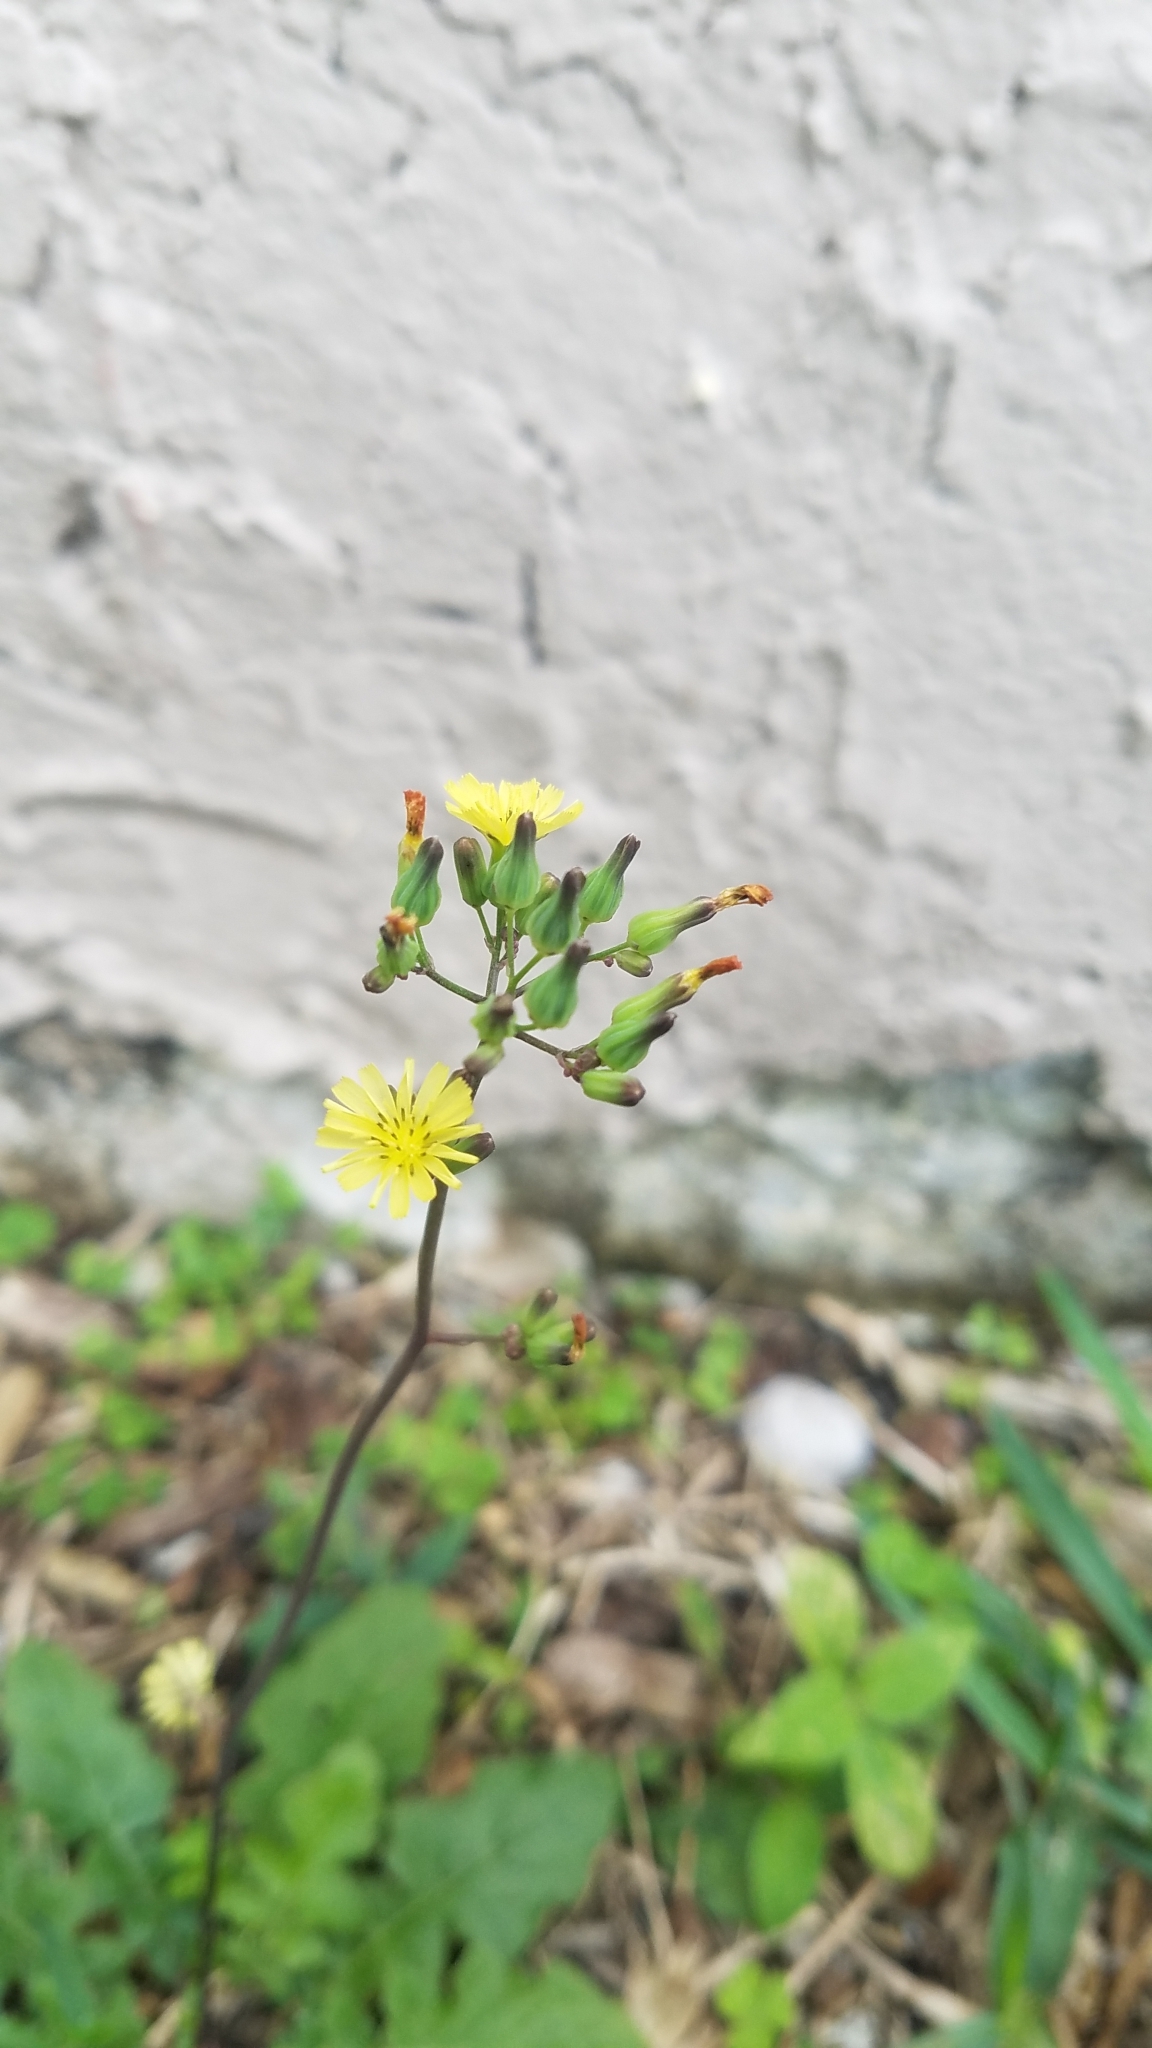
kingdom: Plantae
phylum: Tracheophyta
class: Magnoliopsida
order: Asterales
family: Asteraceae
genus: Youngia
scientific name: Youngia japonica
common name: Oriental false hawksbeard
